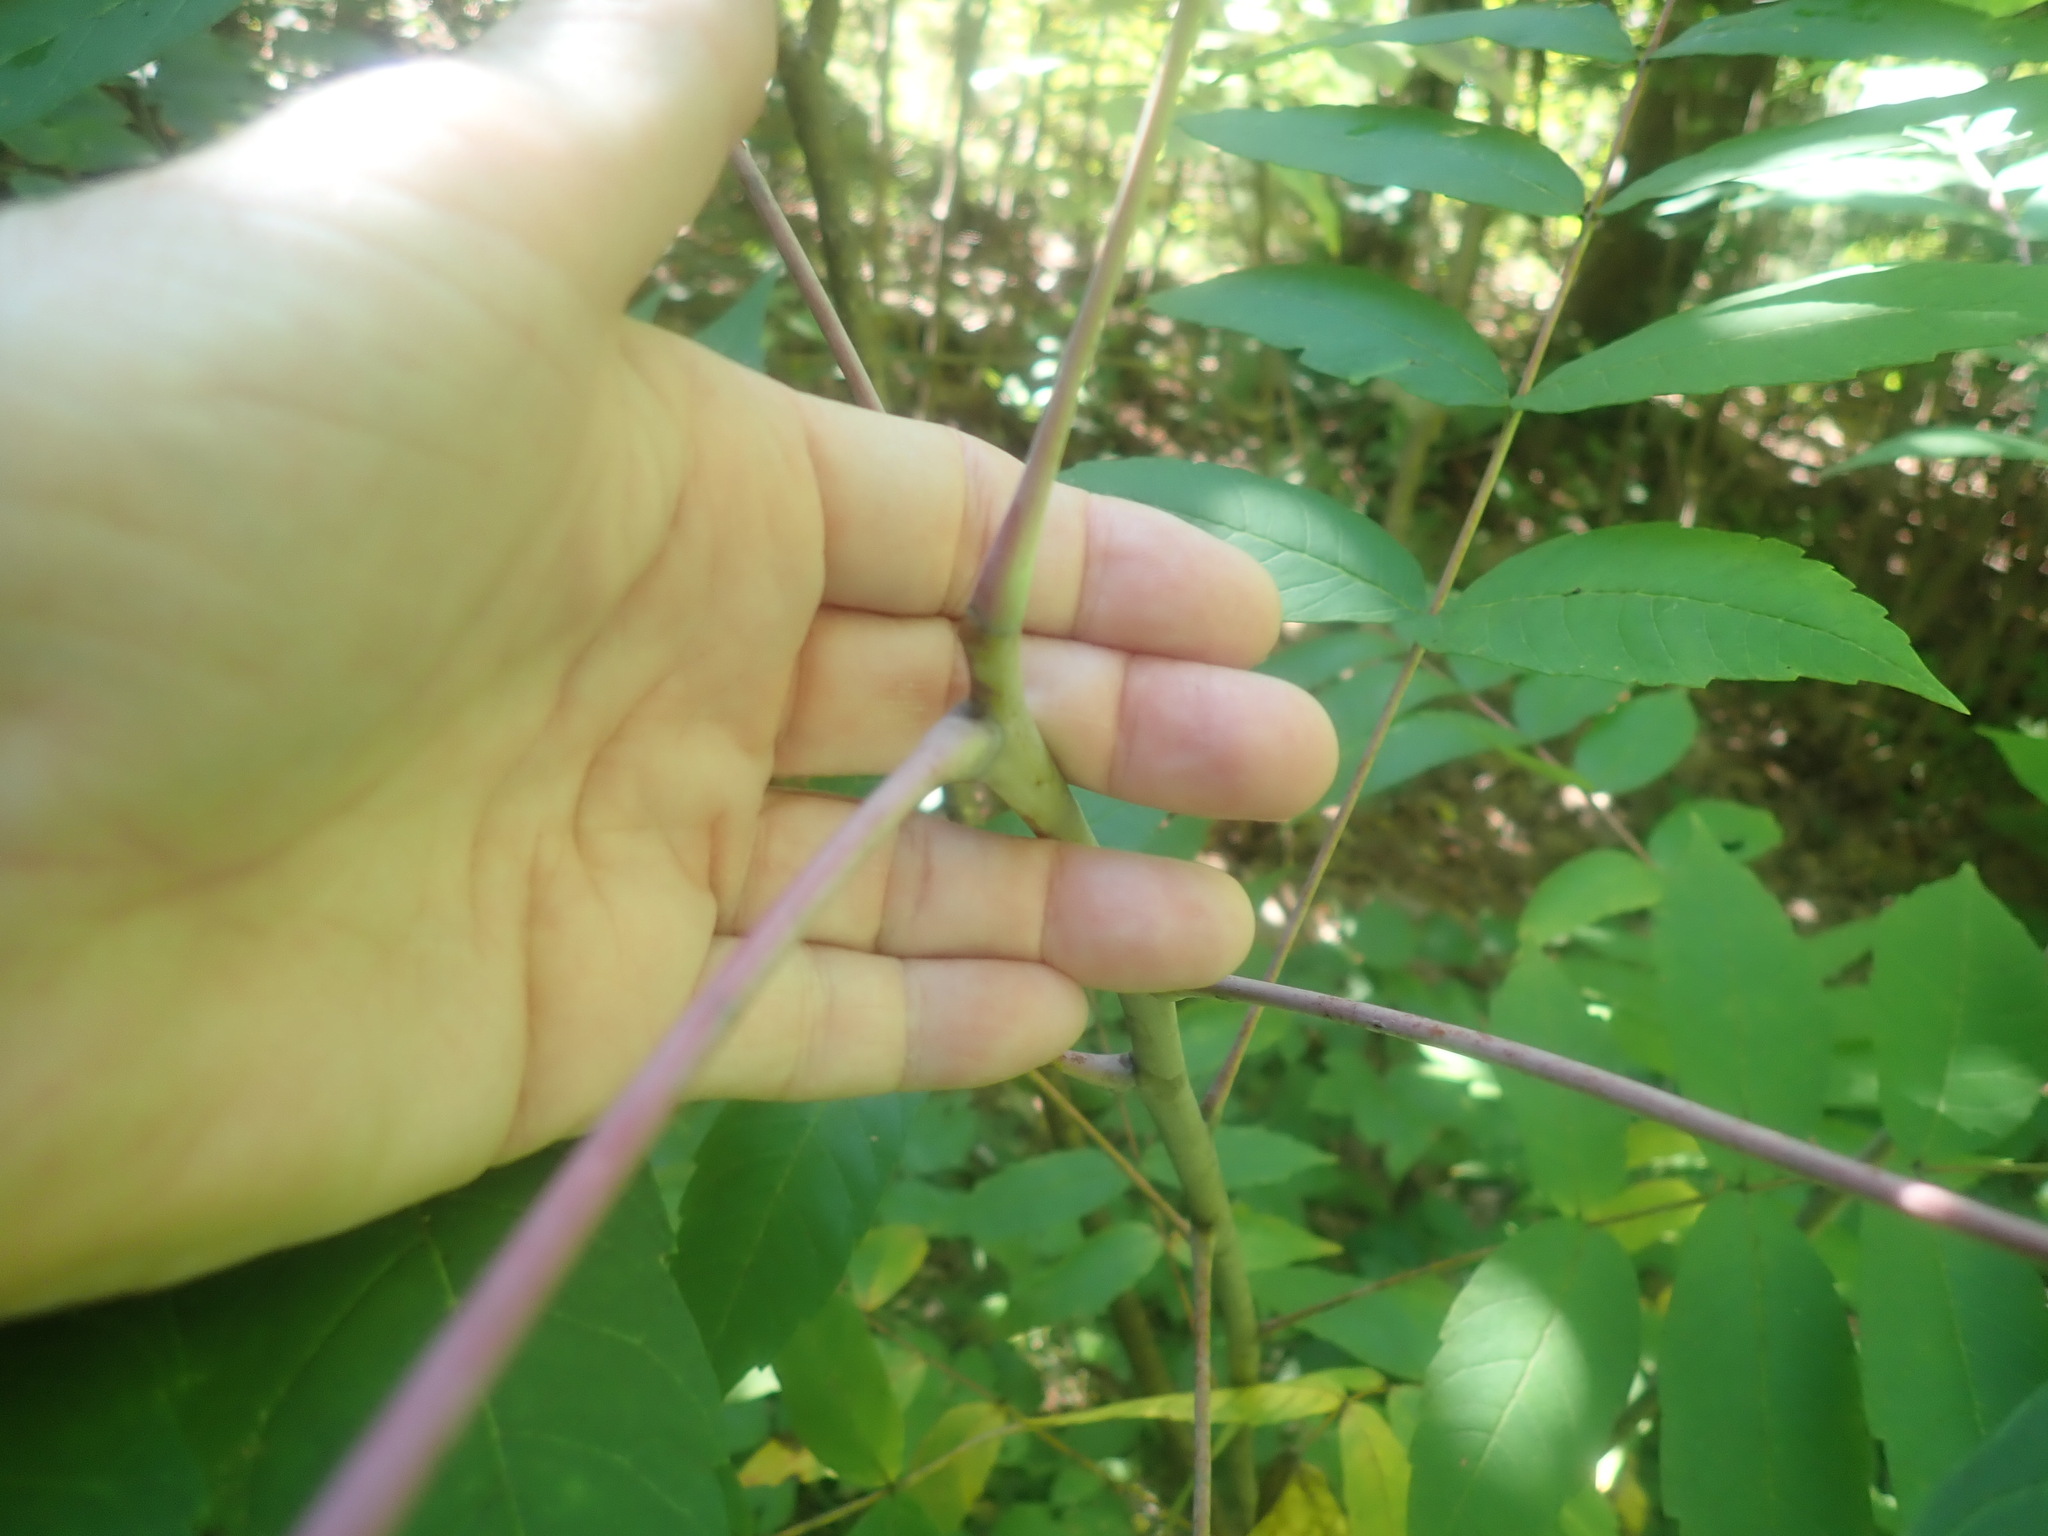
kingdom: Plantae
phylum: Tracheophyta
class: Magnoliopsida
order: Sapindales
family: Anacardiaceae
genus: Rhus
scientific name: Rhus glabra
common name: Scarlet sumac
